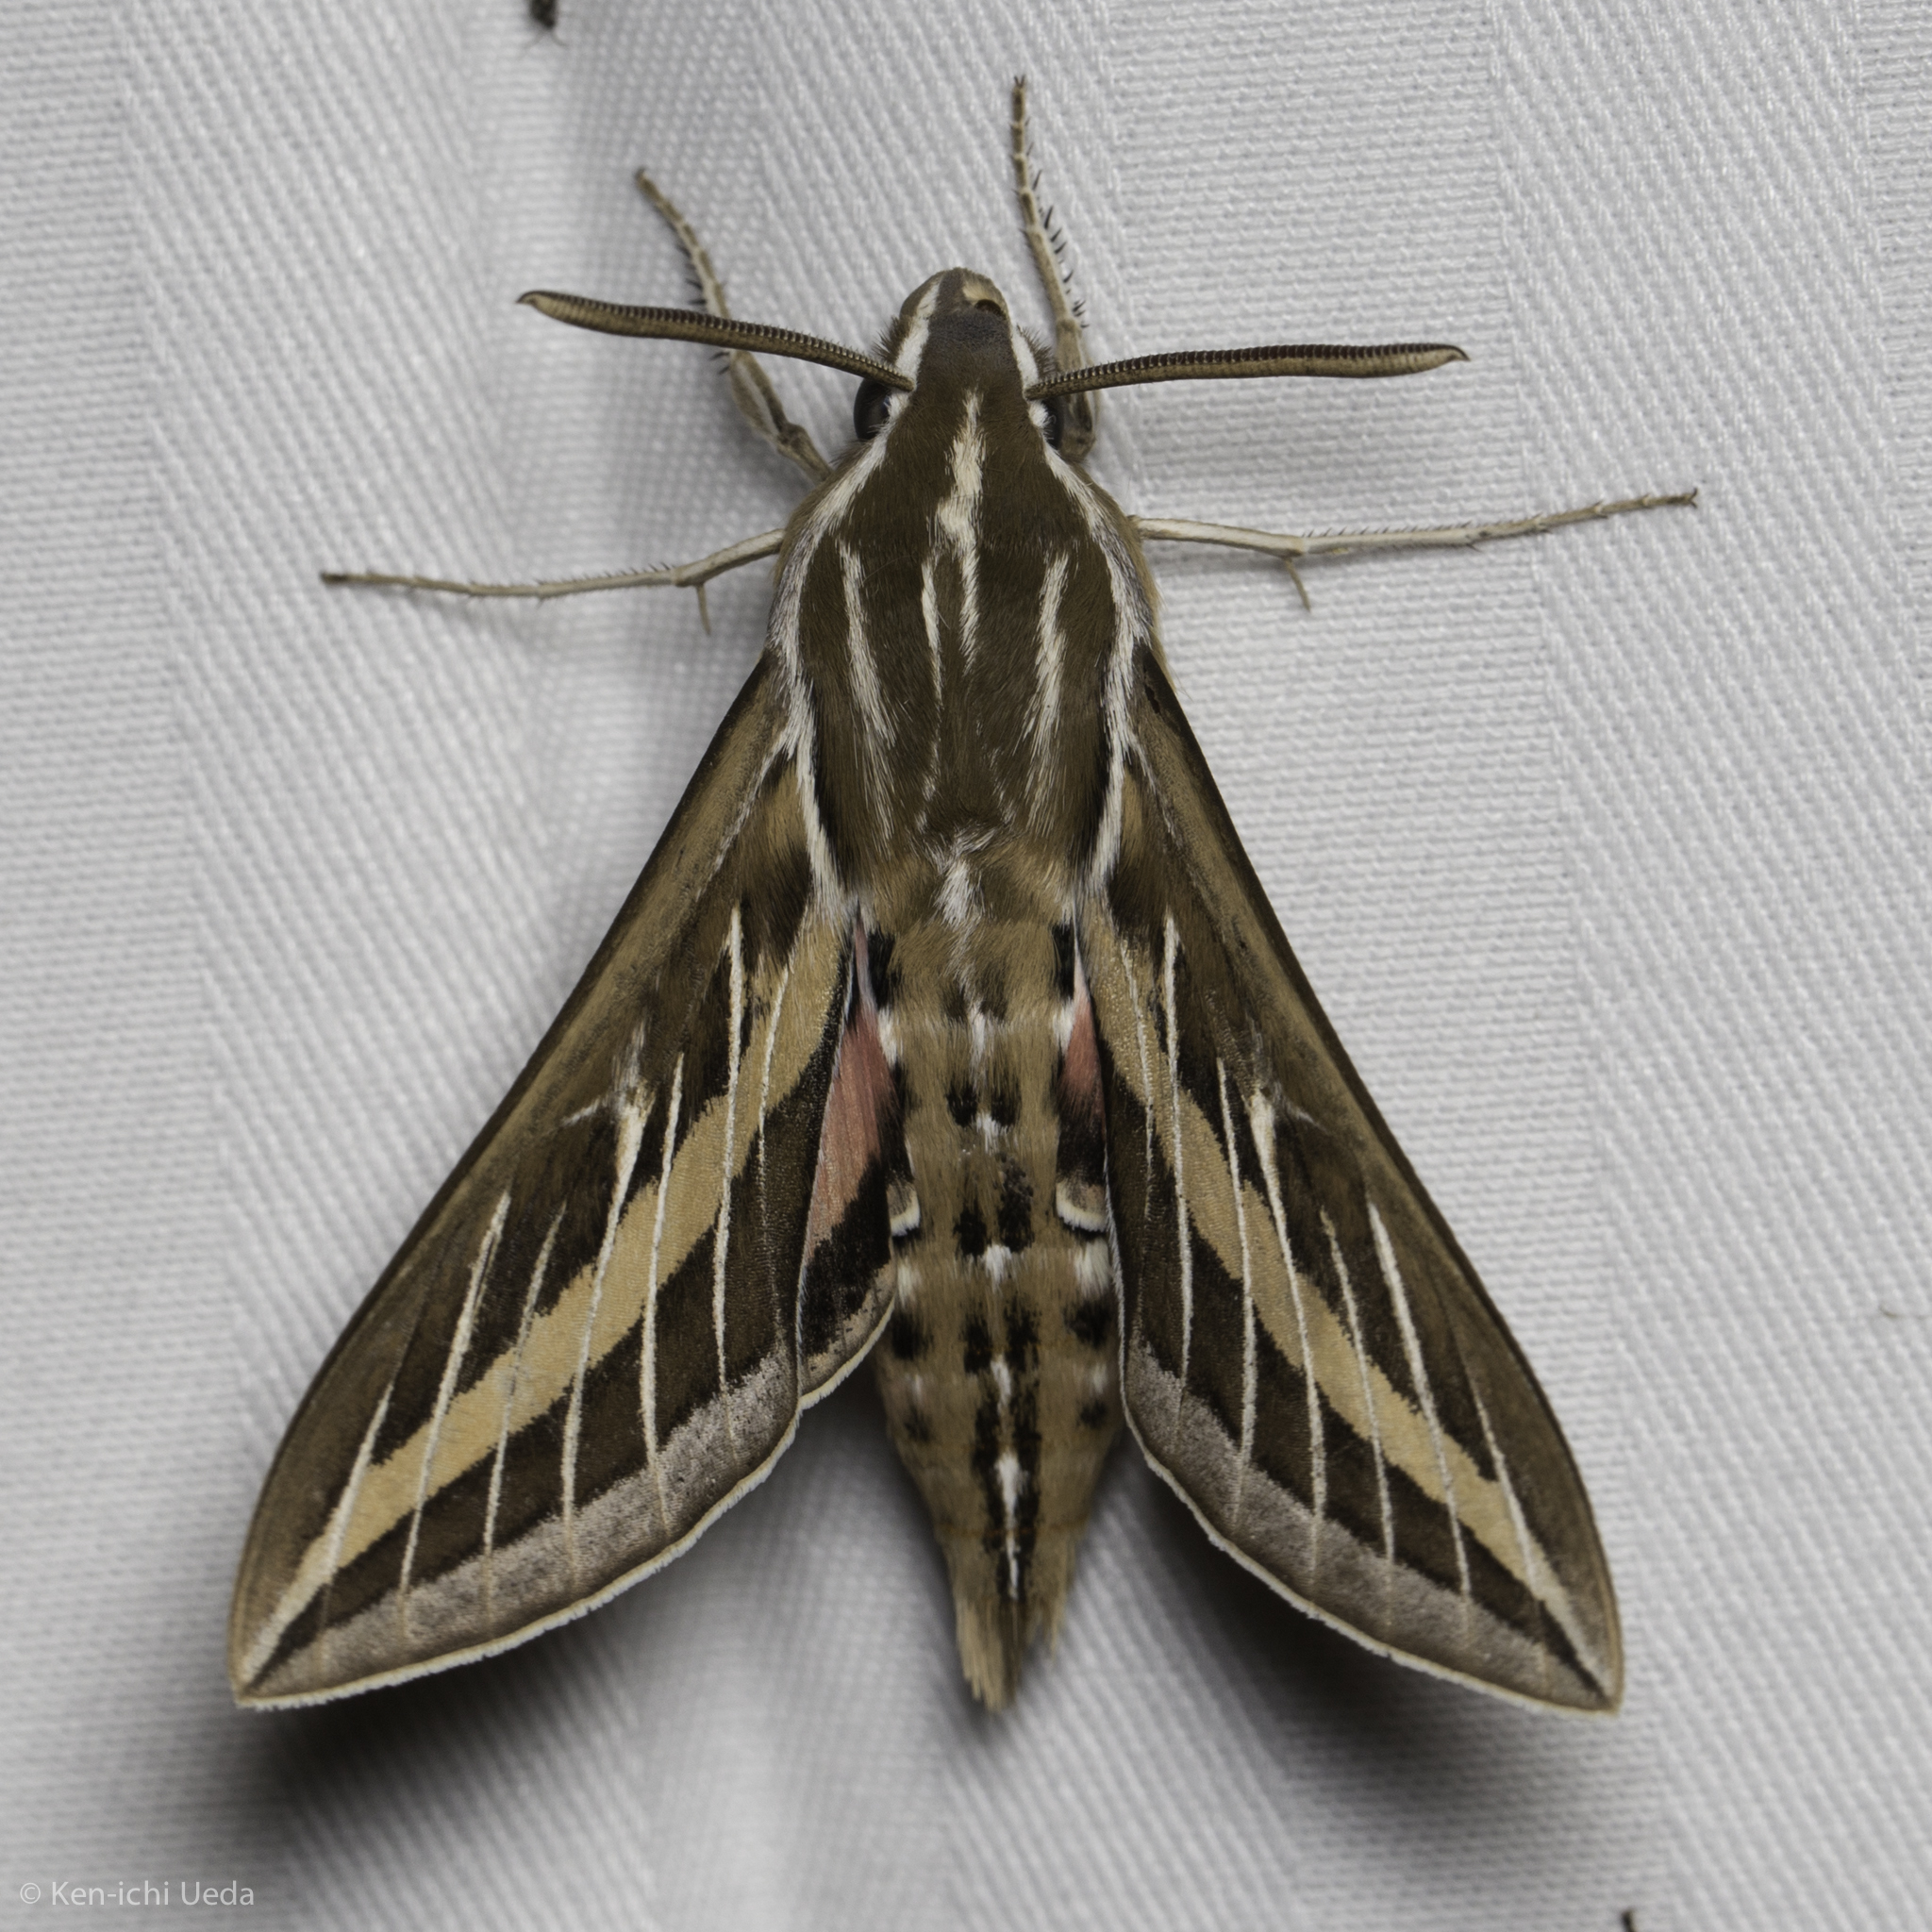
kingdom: Animalia
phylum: Arthropoda
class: Insecta
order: Lepidoptera
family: Sphingidae
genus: Hyles
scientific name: Hyles lineata
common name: White-lined sphinx
